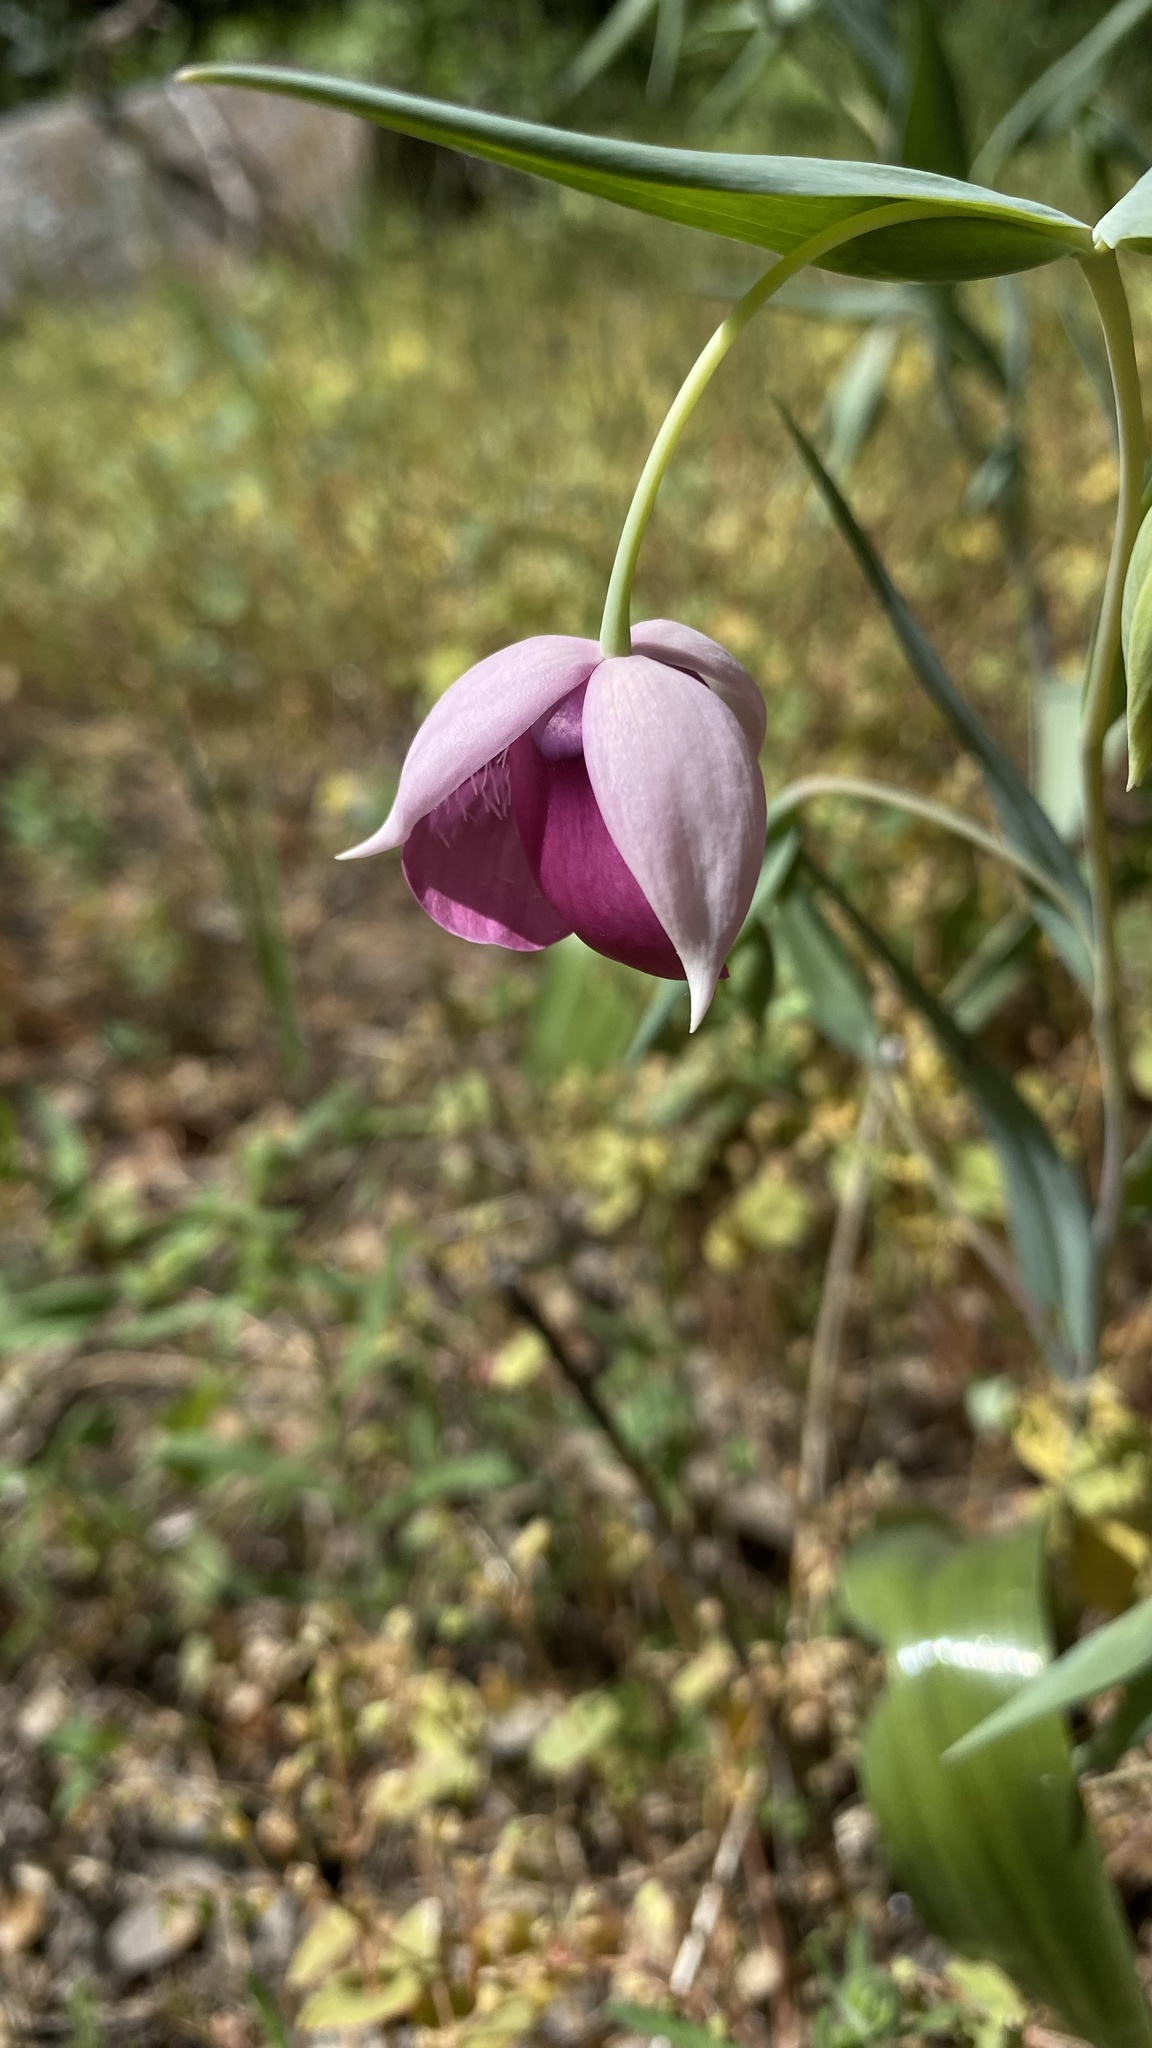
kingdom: Plantae
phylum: Tracheophyta
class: Liliopsida
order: Liliales
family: Liliaceae
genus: Calochortus
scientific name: Calochortus amoenus
